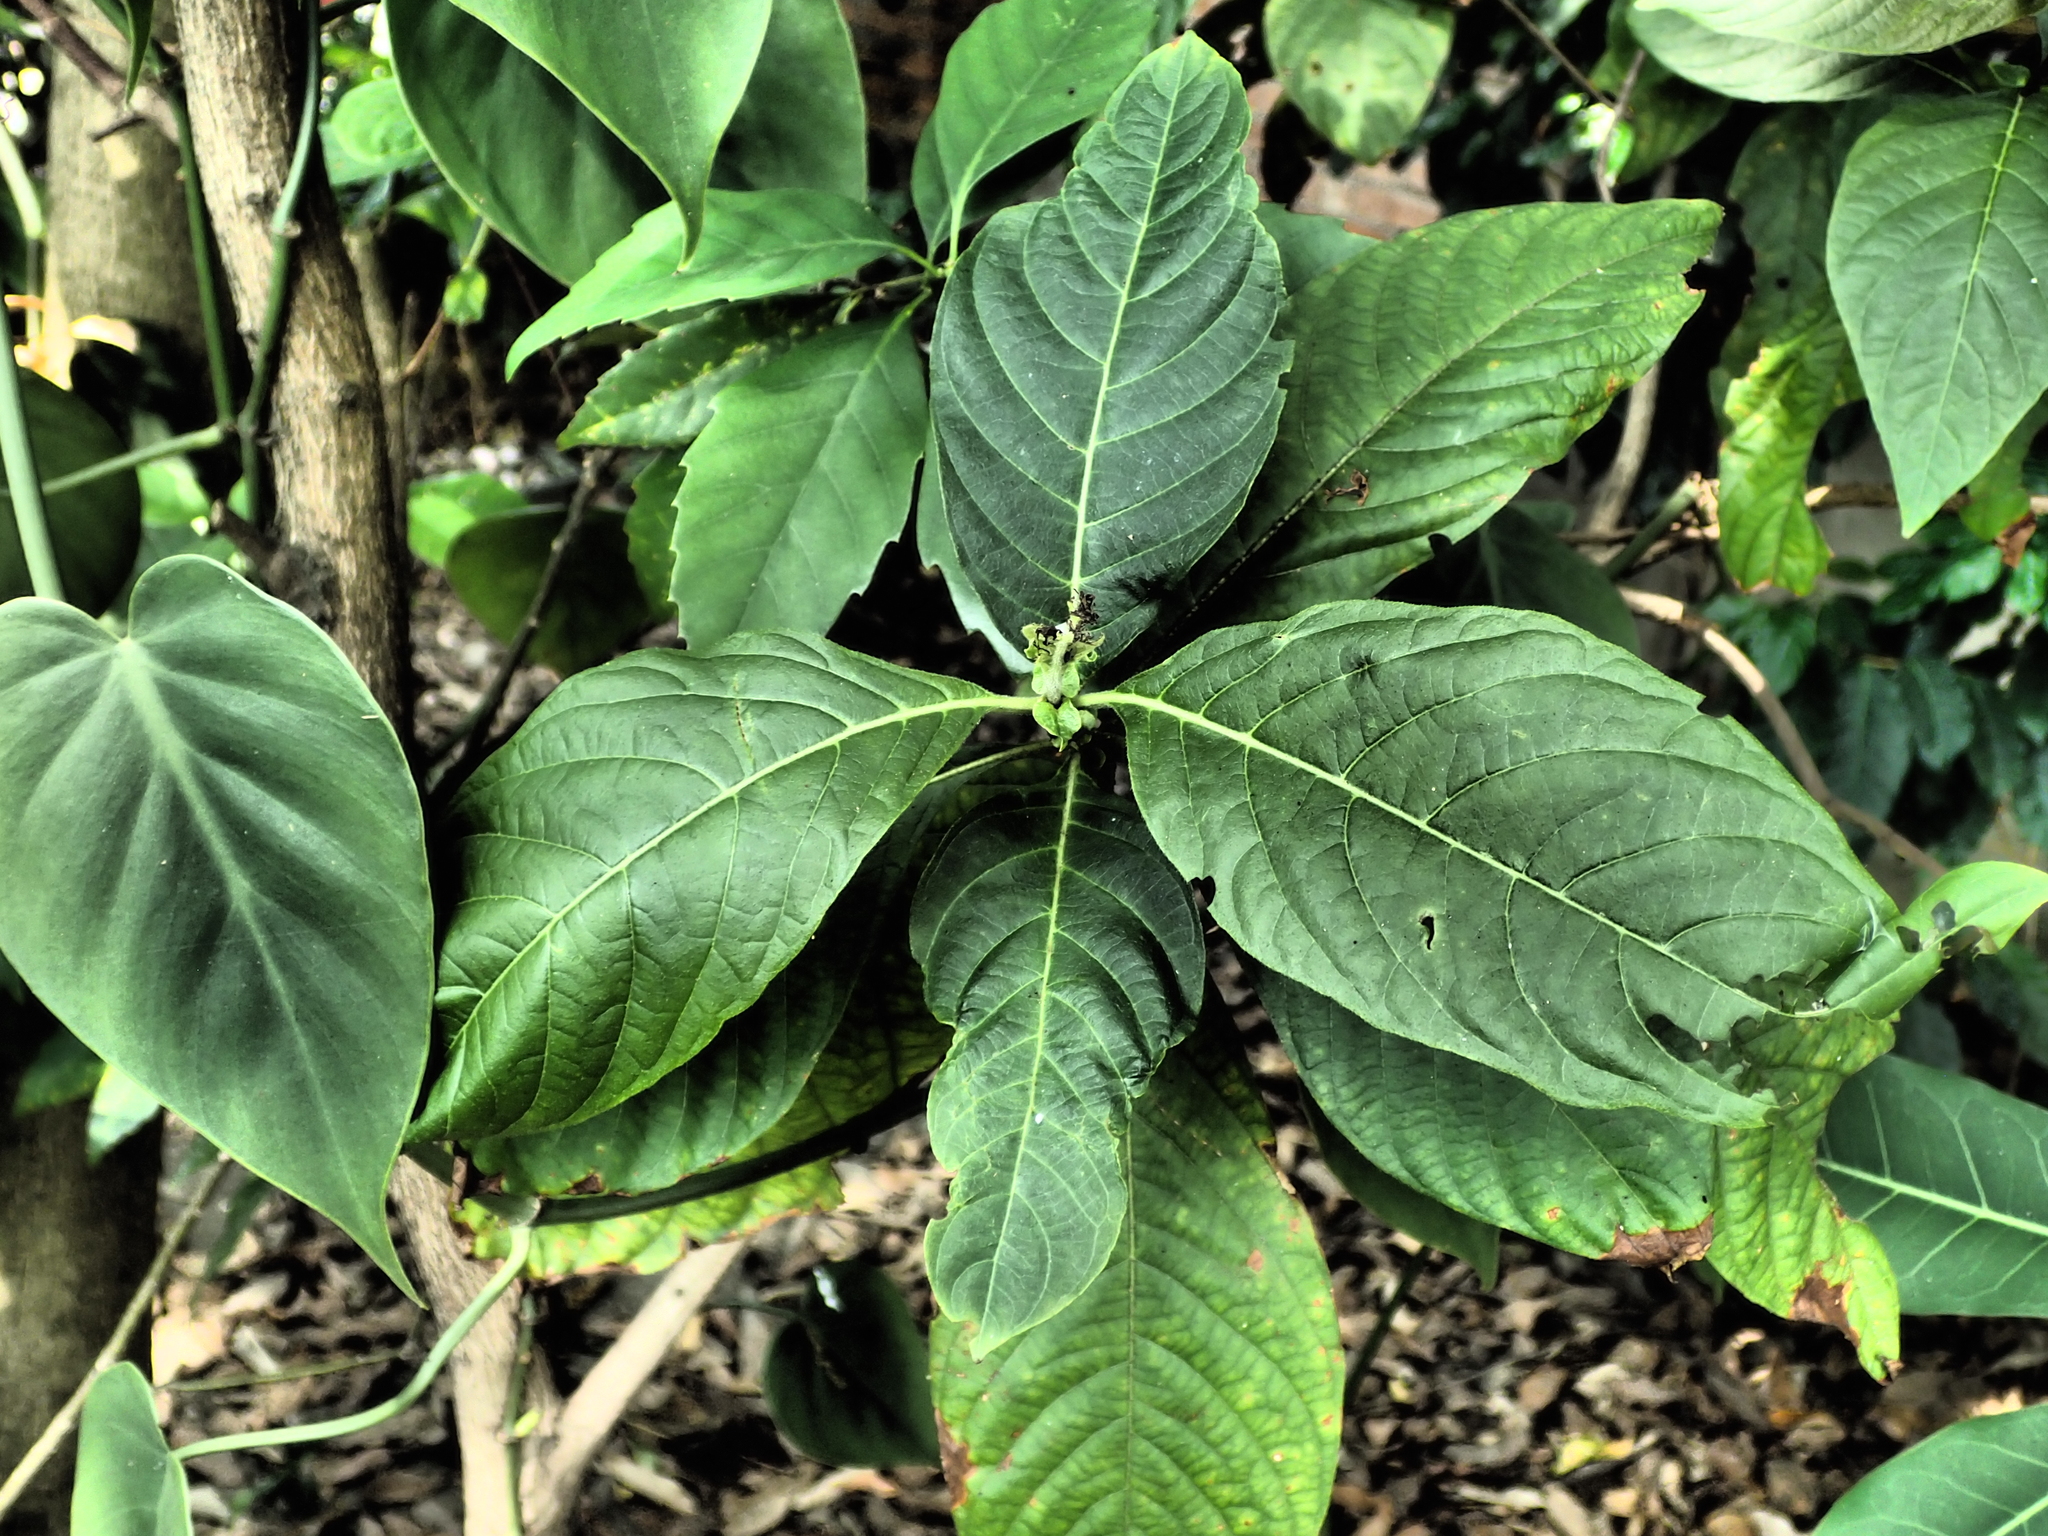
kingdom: Plantae
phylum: Tracheophyta
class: Magnoliopsida
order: Gentianales
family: Rubiaceae
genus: Wendlandia
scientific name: Wendlandia uvariifolia
